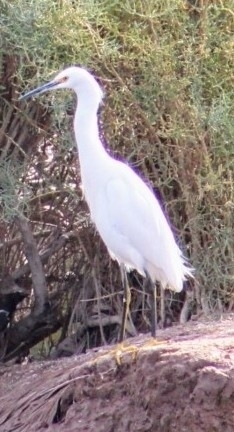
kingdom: Animalia
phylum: Chordata
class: Aves
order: Pelecaniformes
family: Ardeidae
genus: Egretta
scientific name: Egretta thula
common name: Snowy egret
